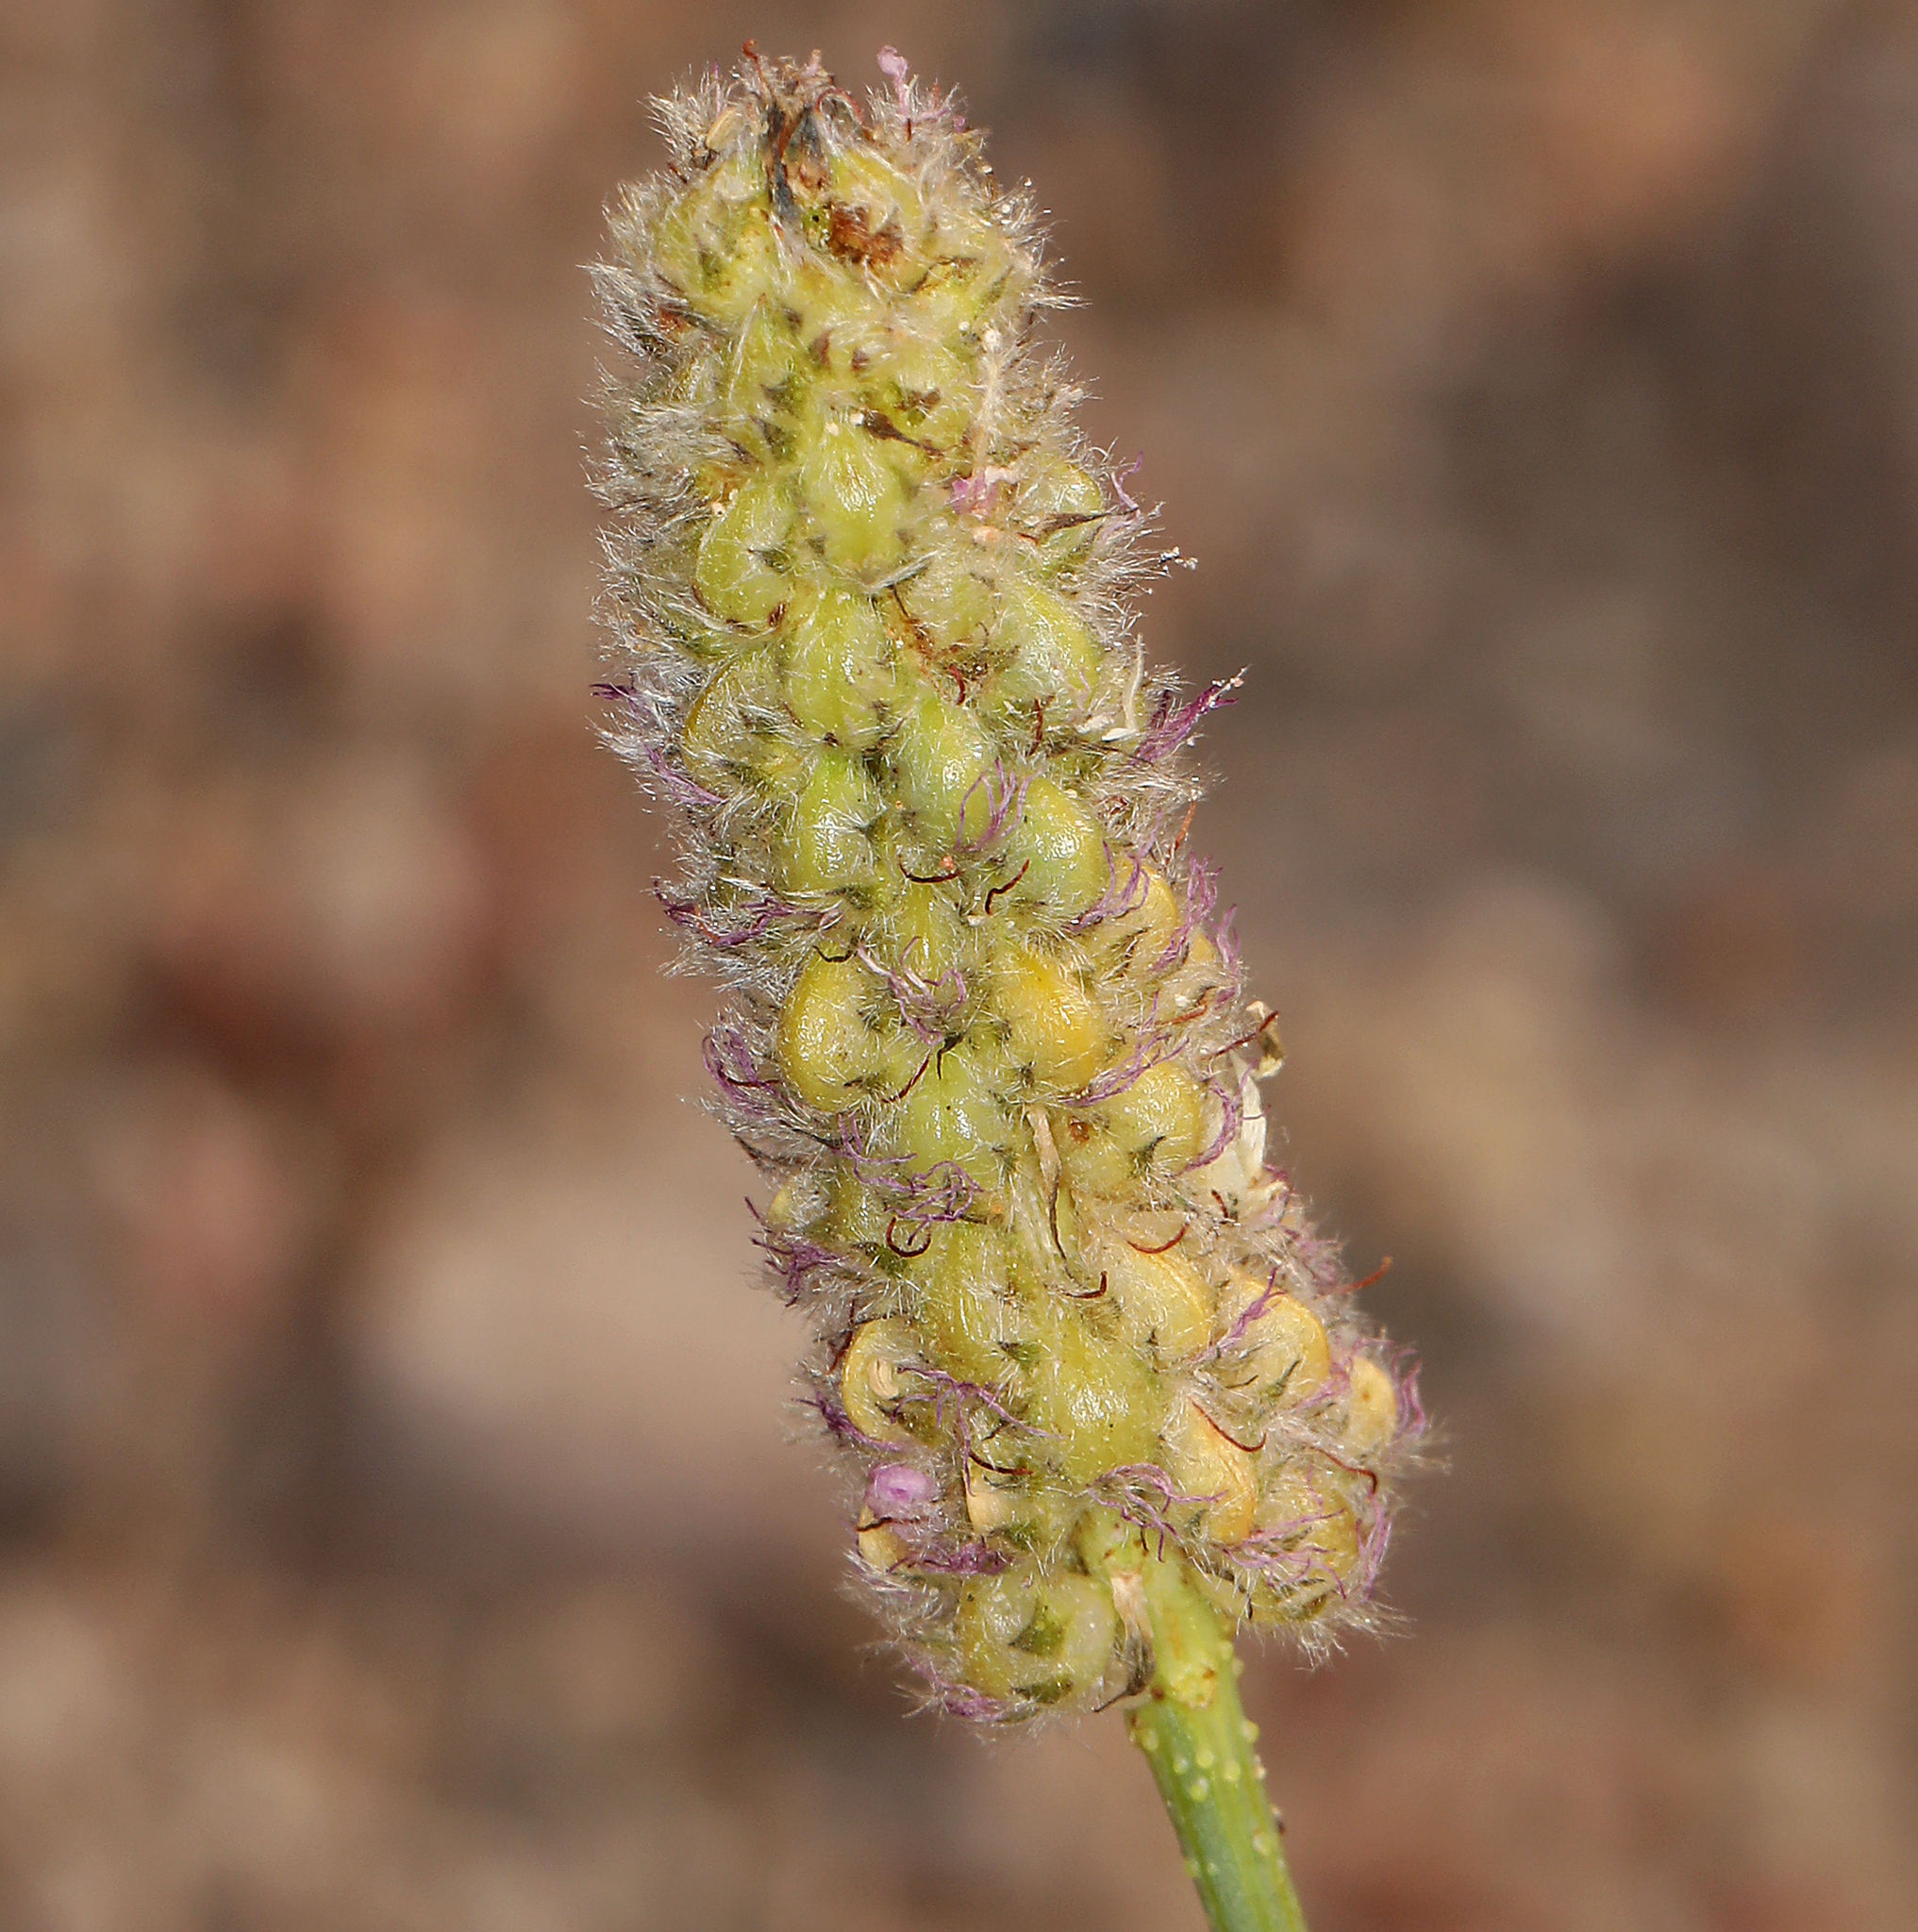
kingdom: Plantae
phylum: Tracheophyta
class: Magnoliopsida
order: Fabales
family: Fabaceae
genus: Dalea
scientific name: Dalea searlsiae
